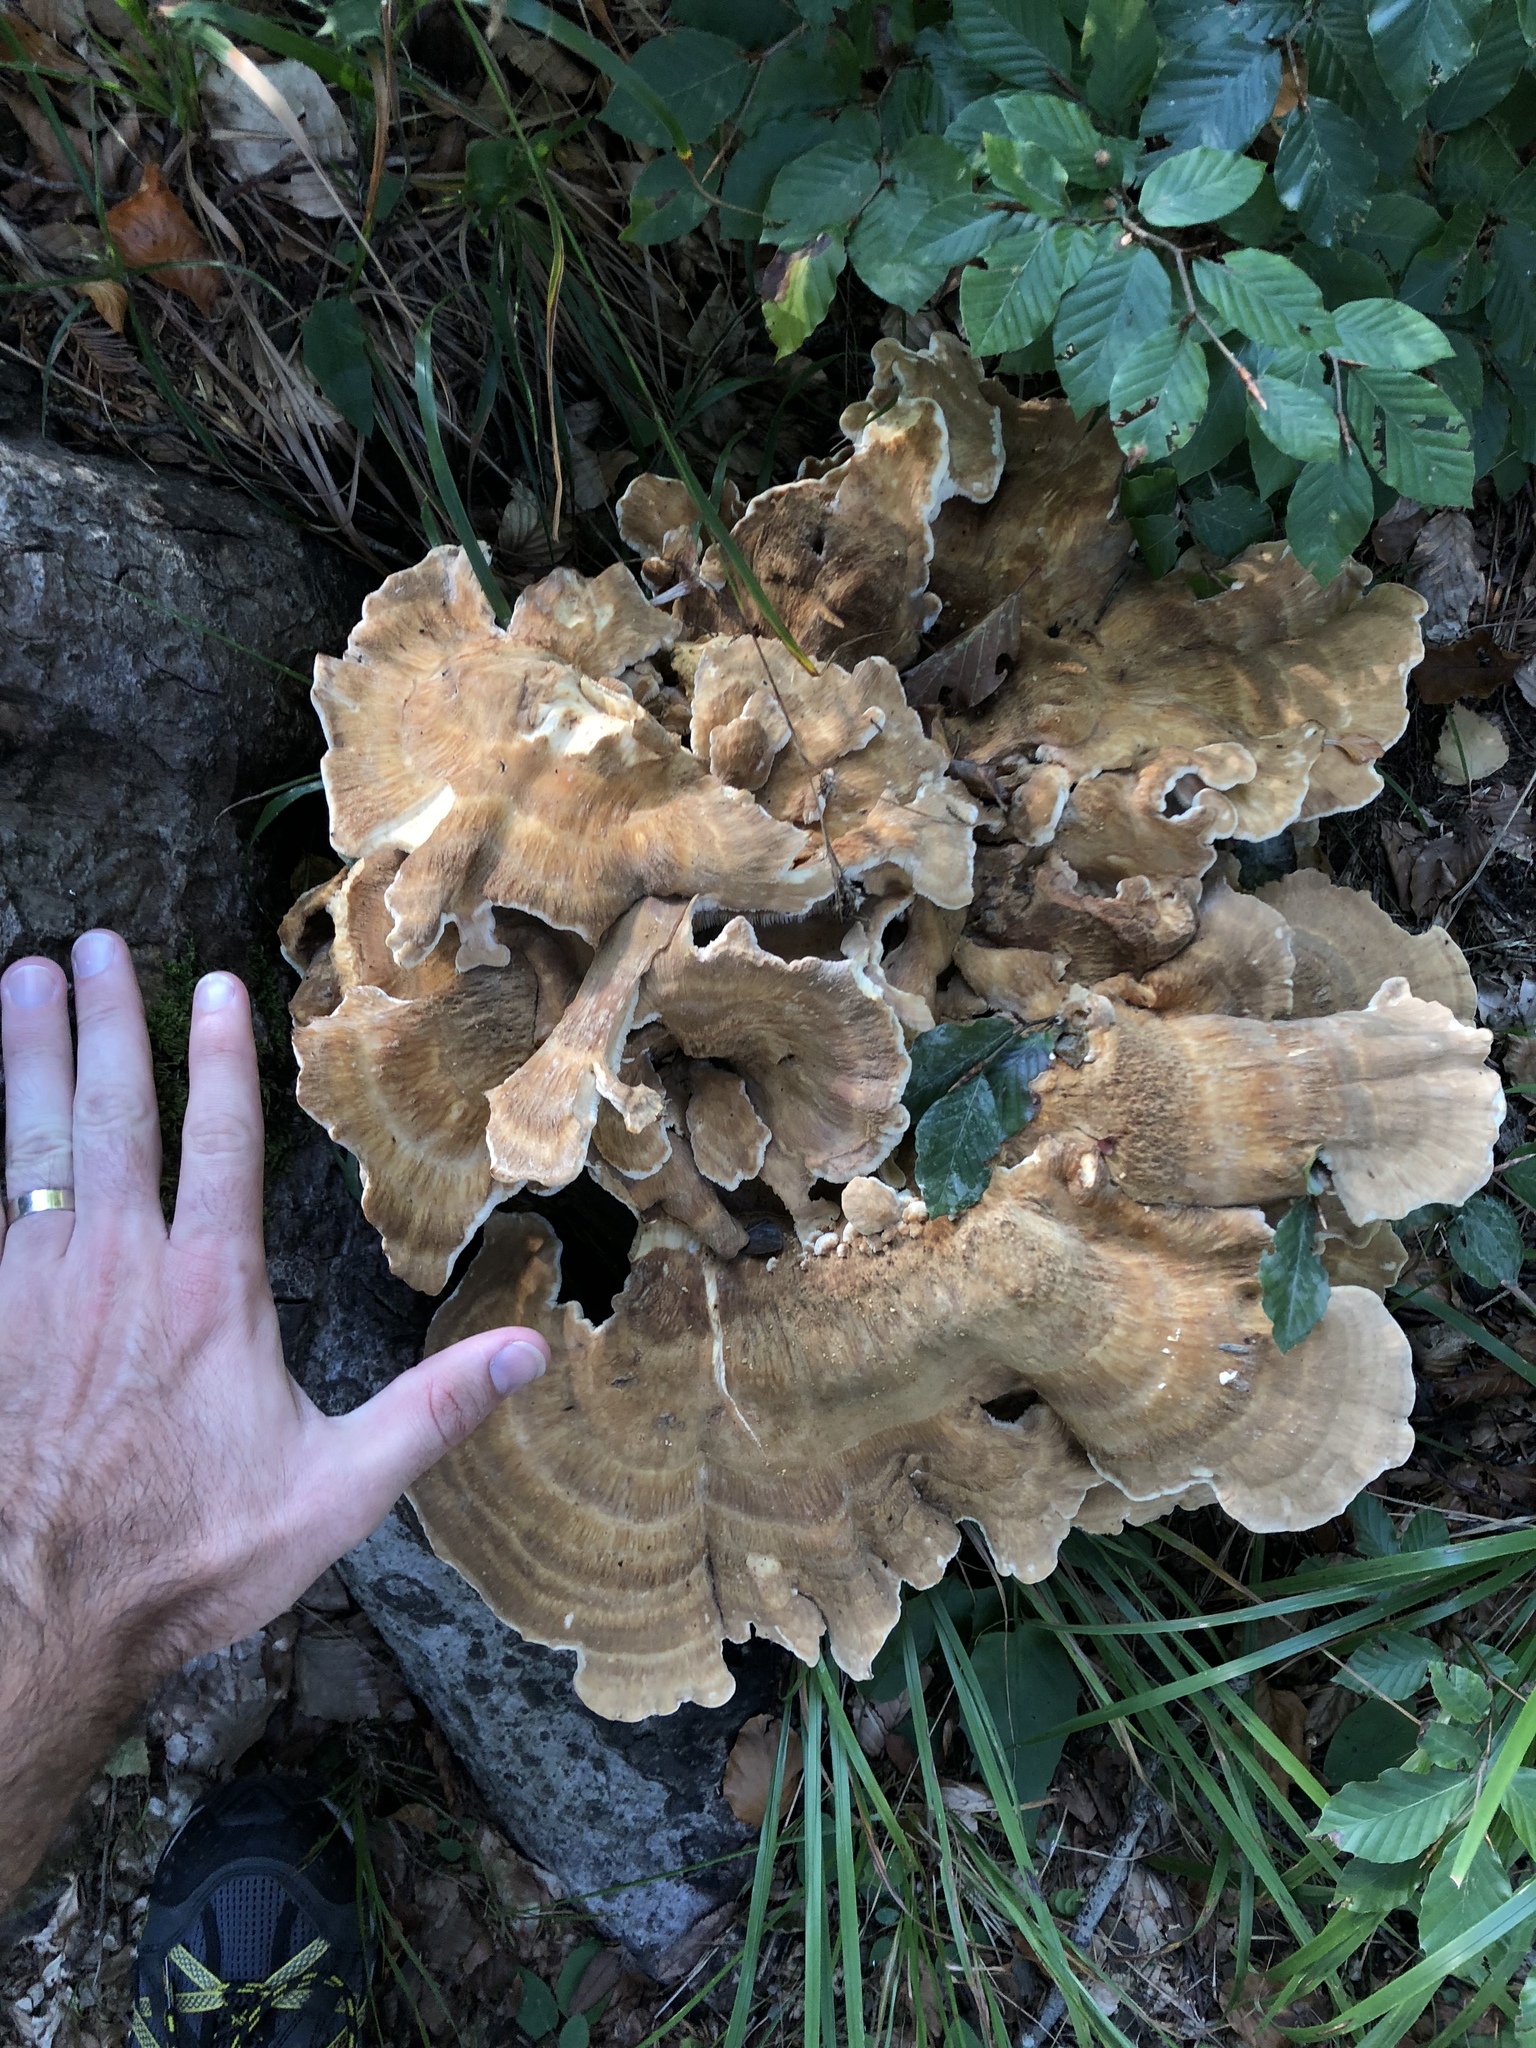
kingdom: Fungi
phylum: Basidiomycota
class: Agaricomycetes
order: Russulales
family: Bondarzewiaceae
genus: Bondarzewia
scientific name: Bondarzewia mesenterica
